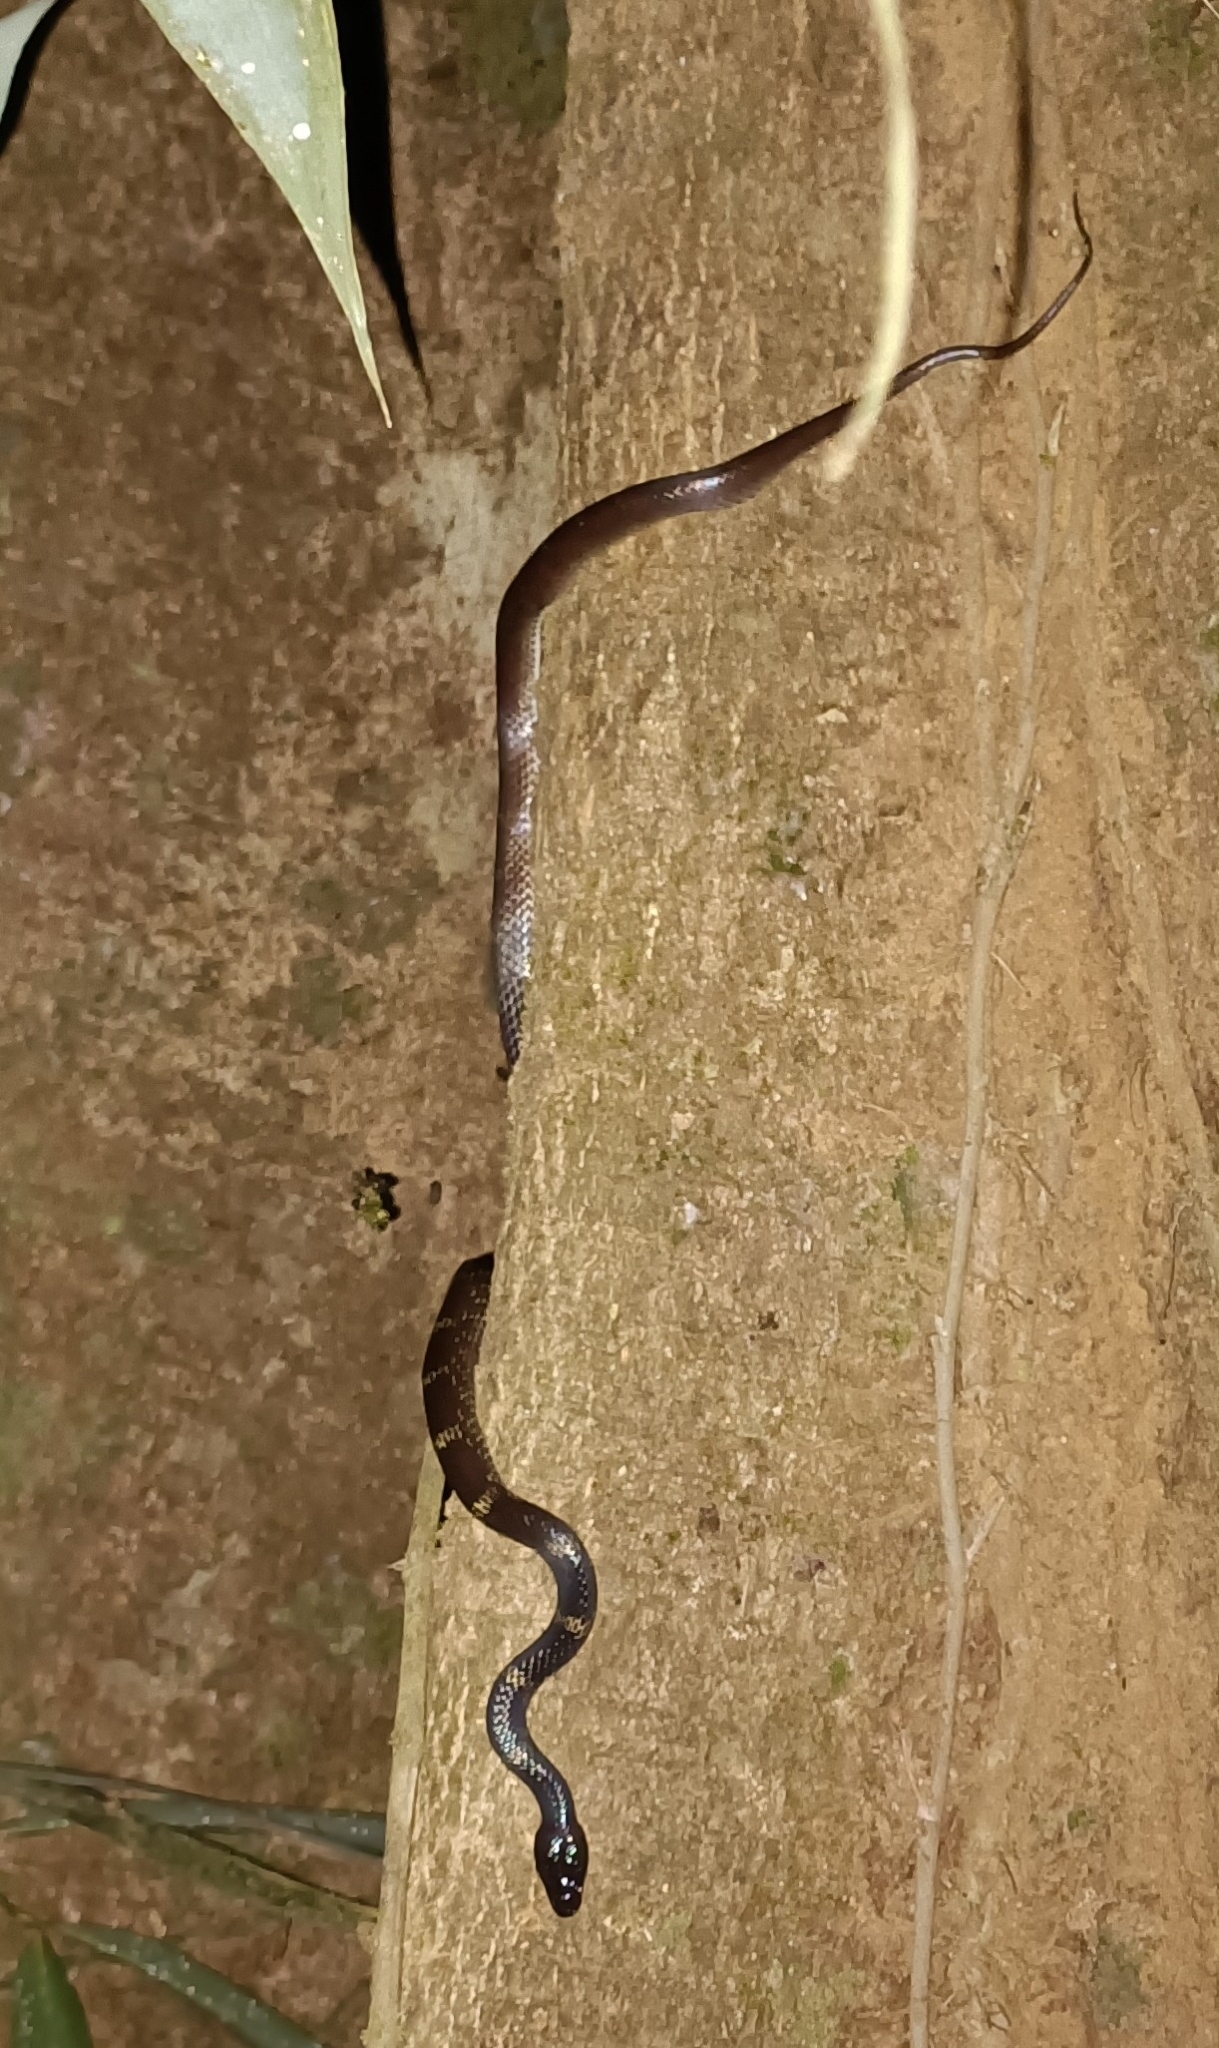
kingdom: Animalia
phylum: Chordata
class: Squamata
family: Colubridae
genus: Lycodon
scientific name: Lycodon travancoricus
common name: Travancore wolf snake
